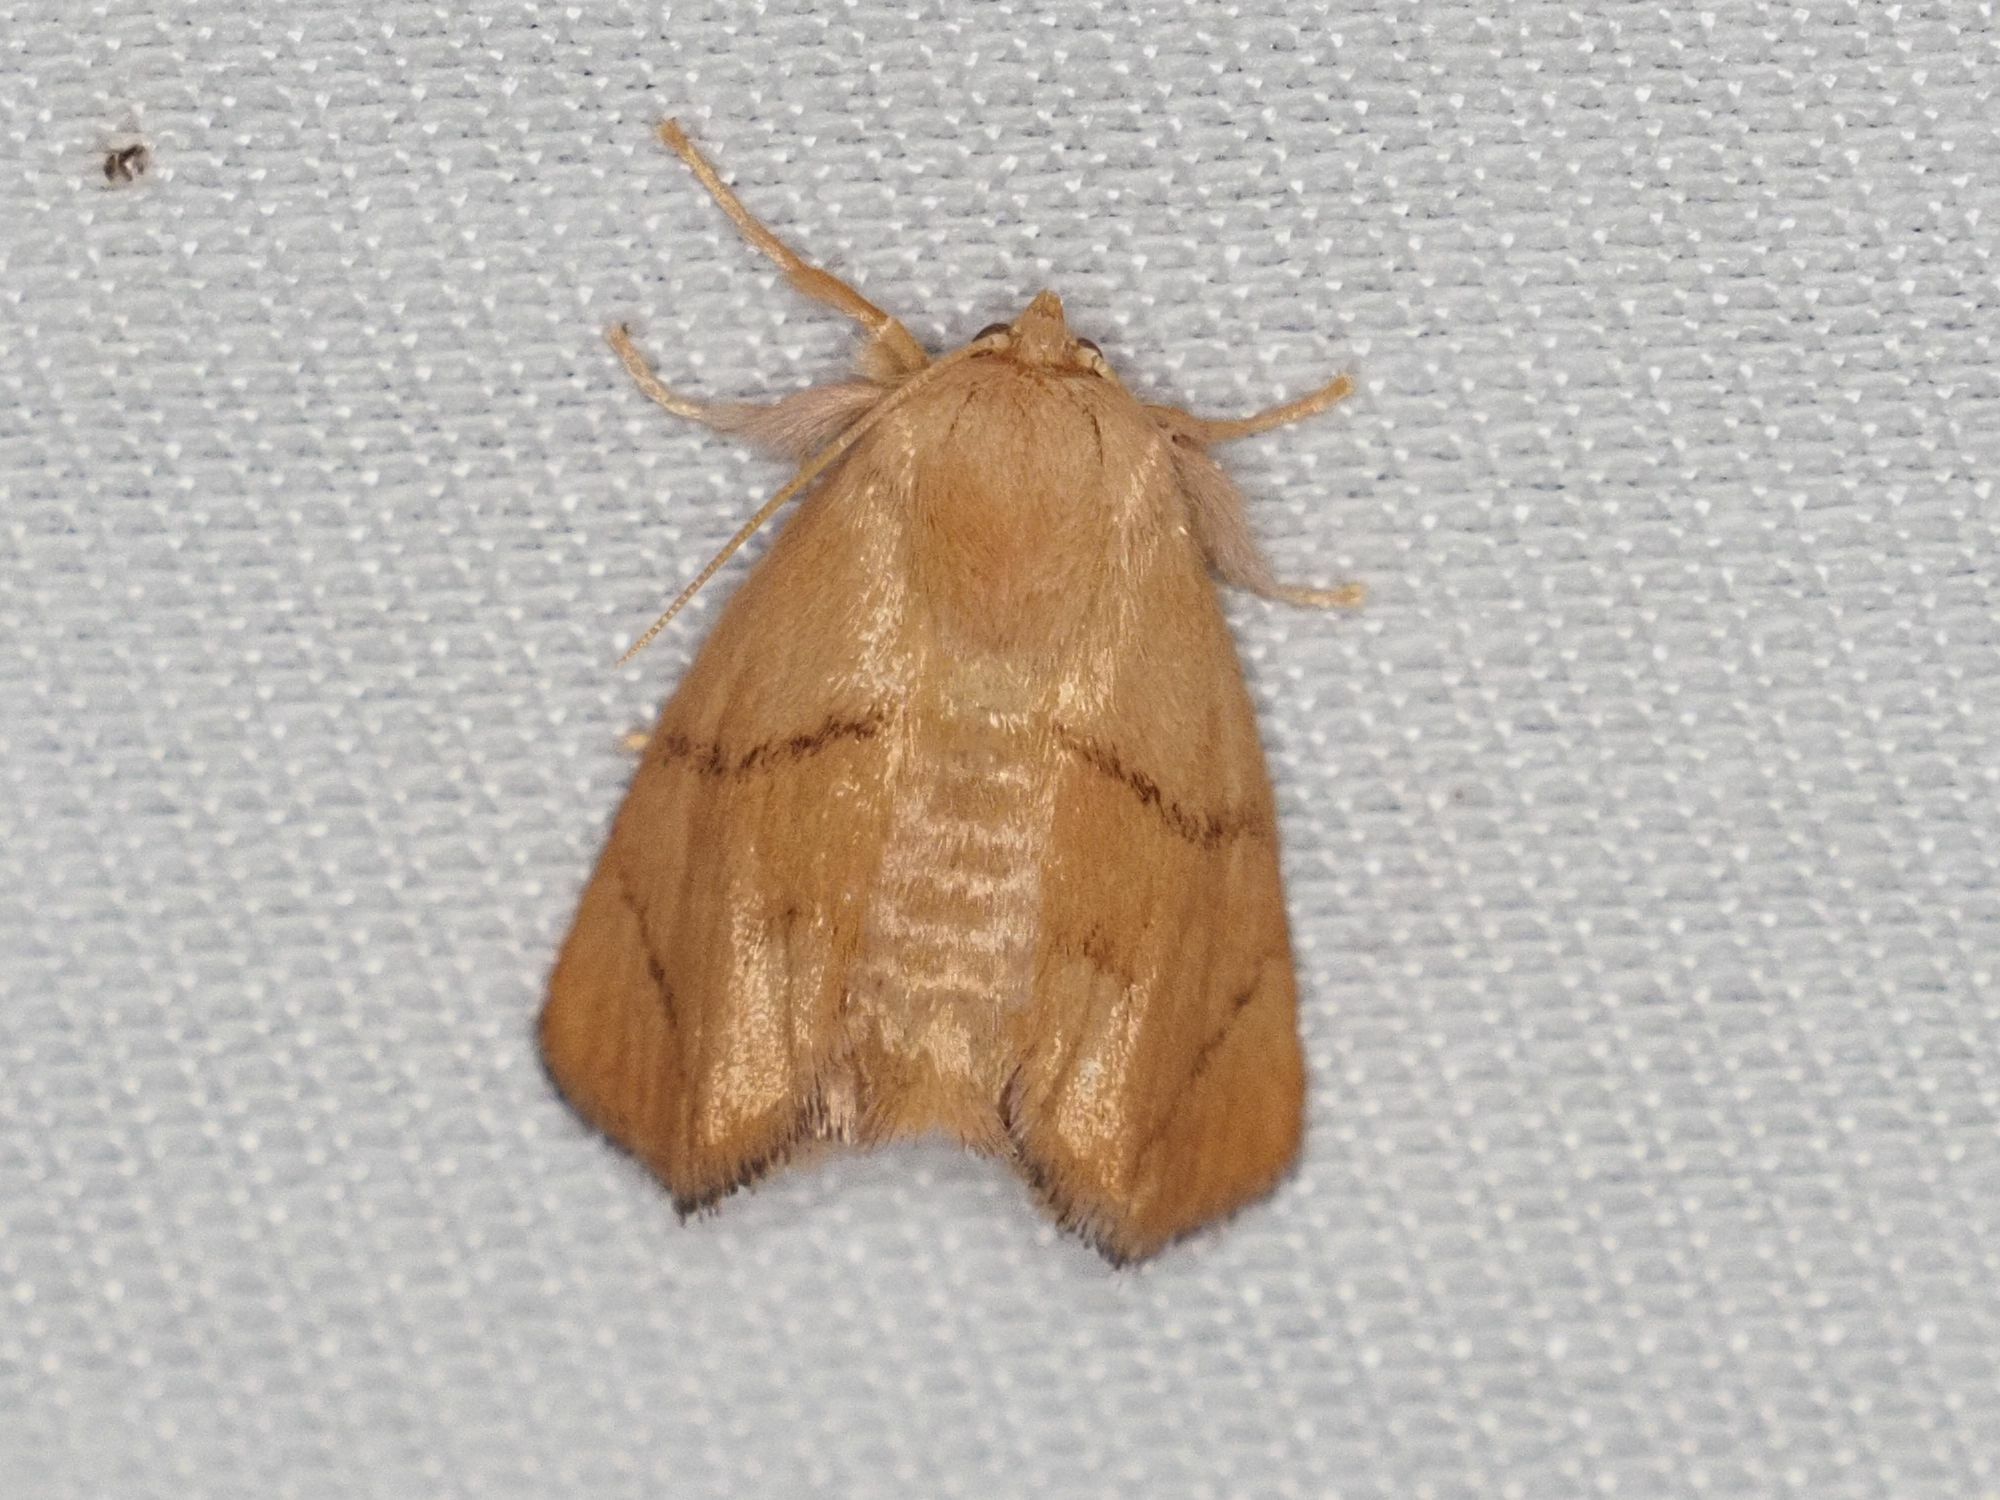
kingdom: Animalia
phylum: Arthropoda
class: Insecta
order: Lepidoptera
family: Limacodidae
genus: Apoda
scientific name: Apoda limacodes
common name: Festoon
